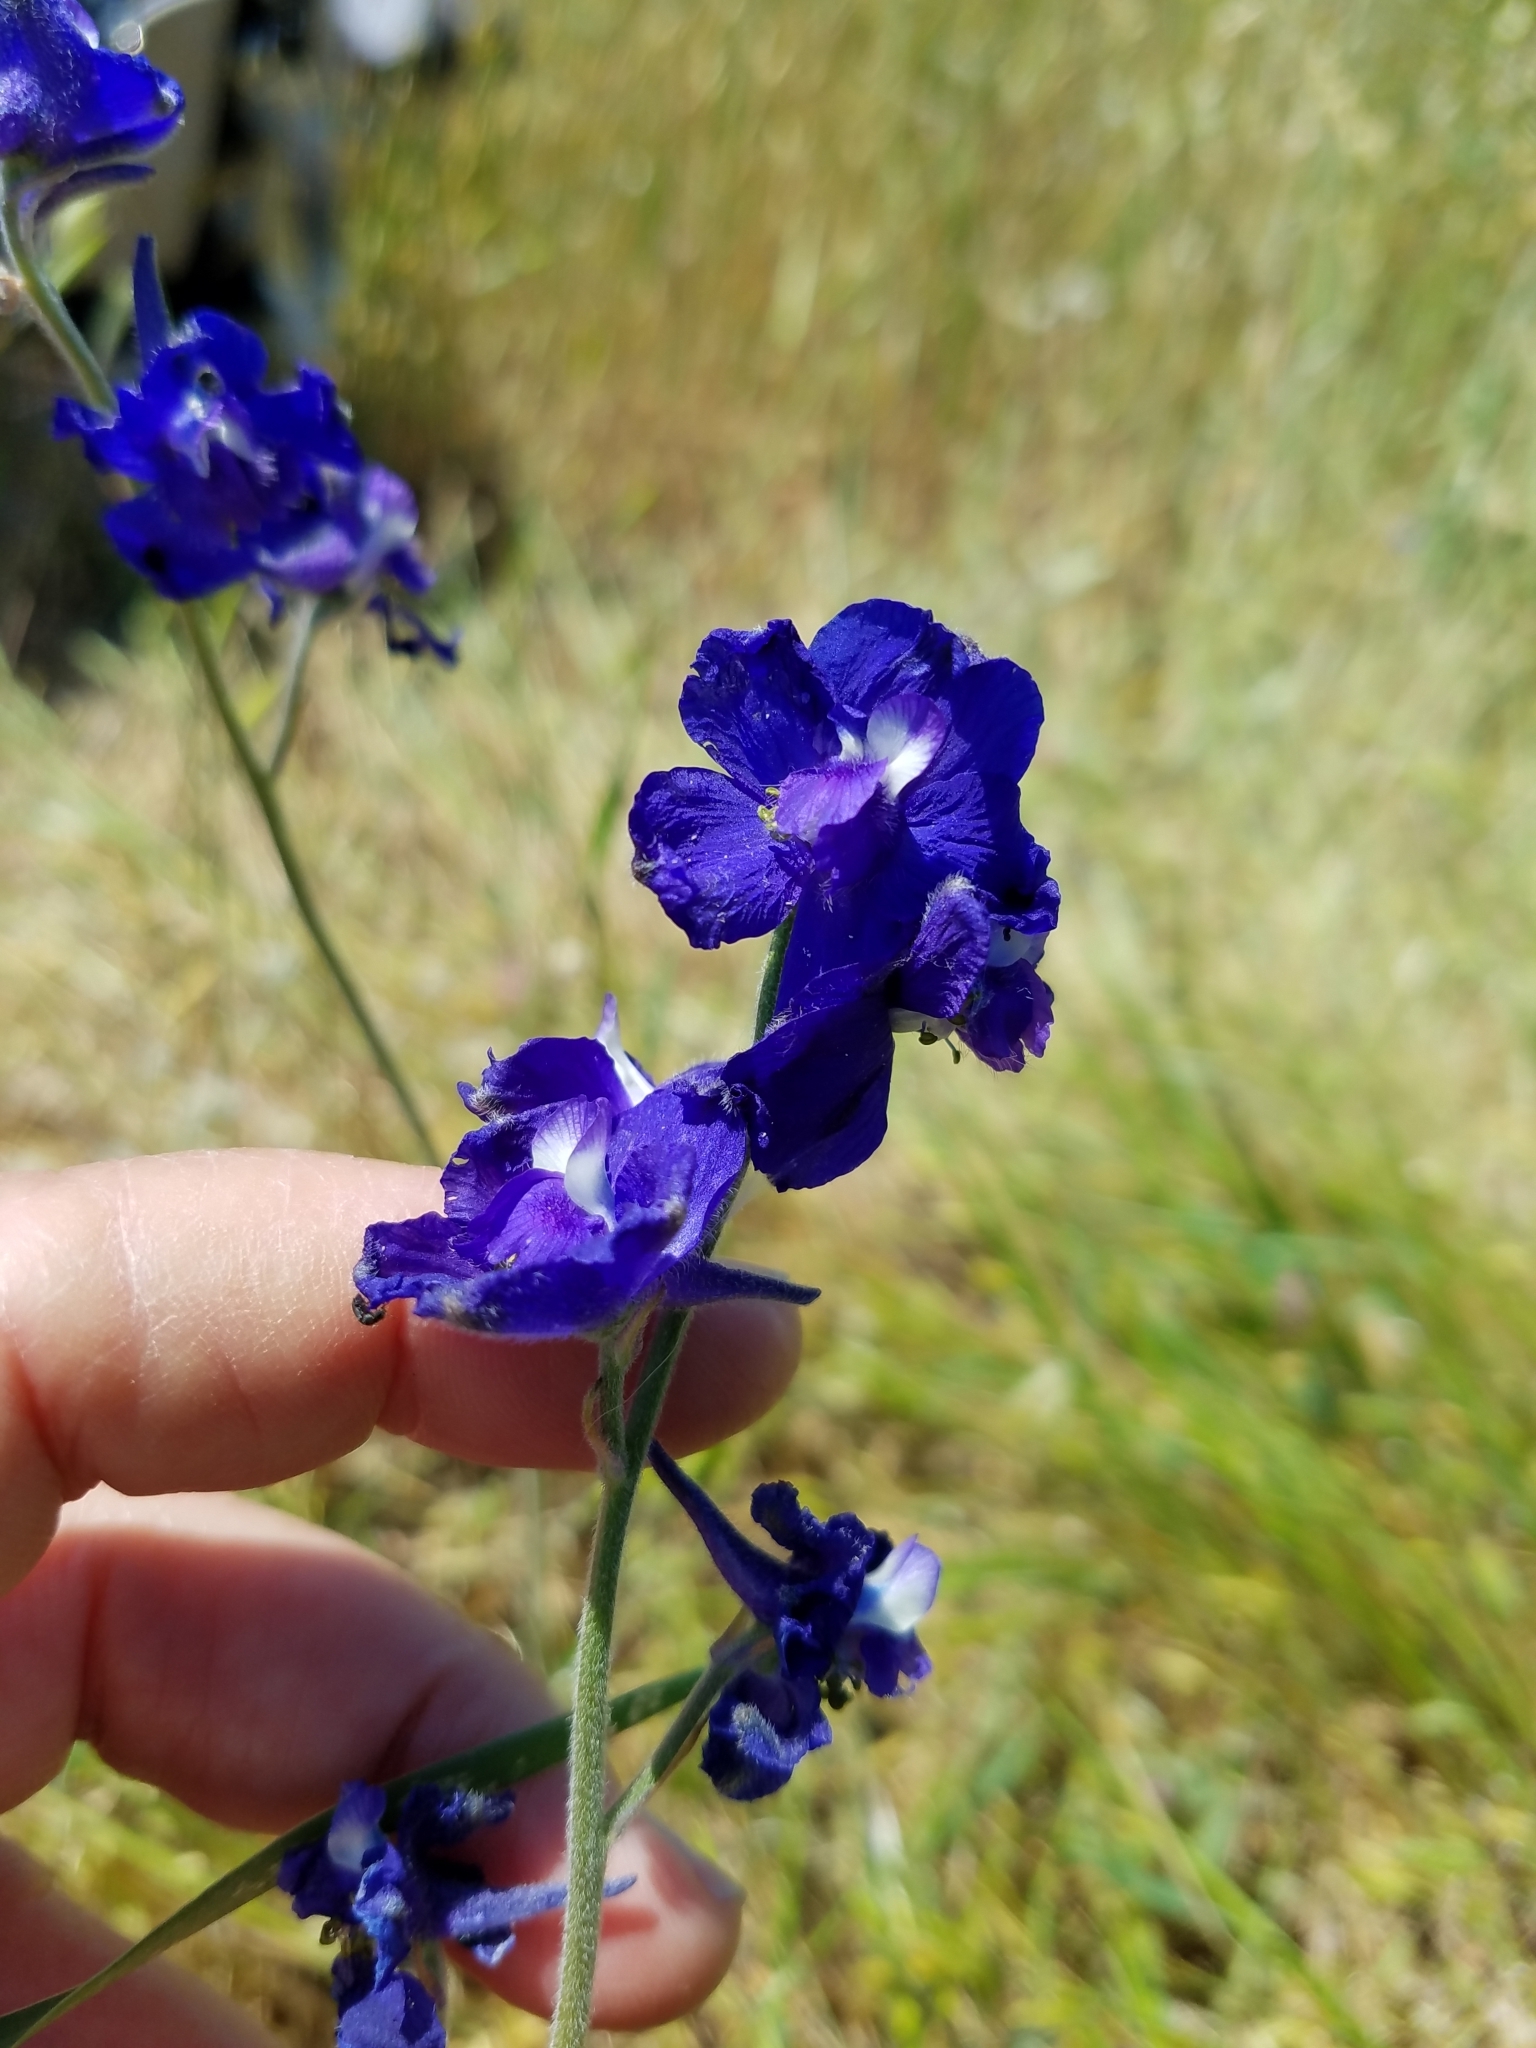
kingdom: Plantae
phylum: Tracheophyta
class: Magnoliopsida
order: Ranunculales
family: Ranunculaceae
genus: Delphinium
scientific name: Delphinium variegatum
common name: Royal larkspur
